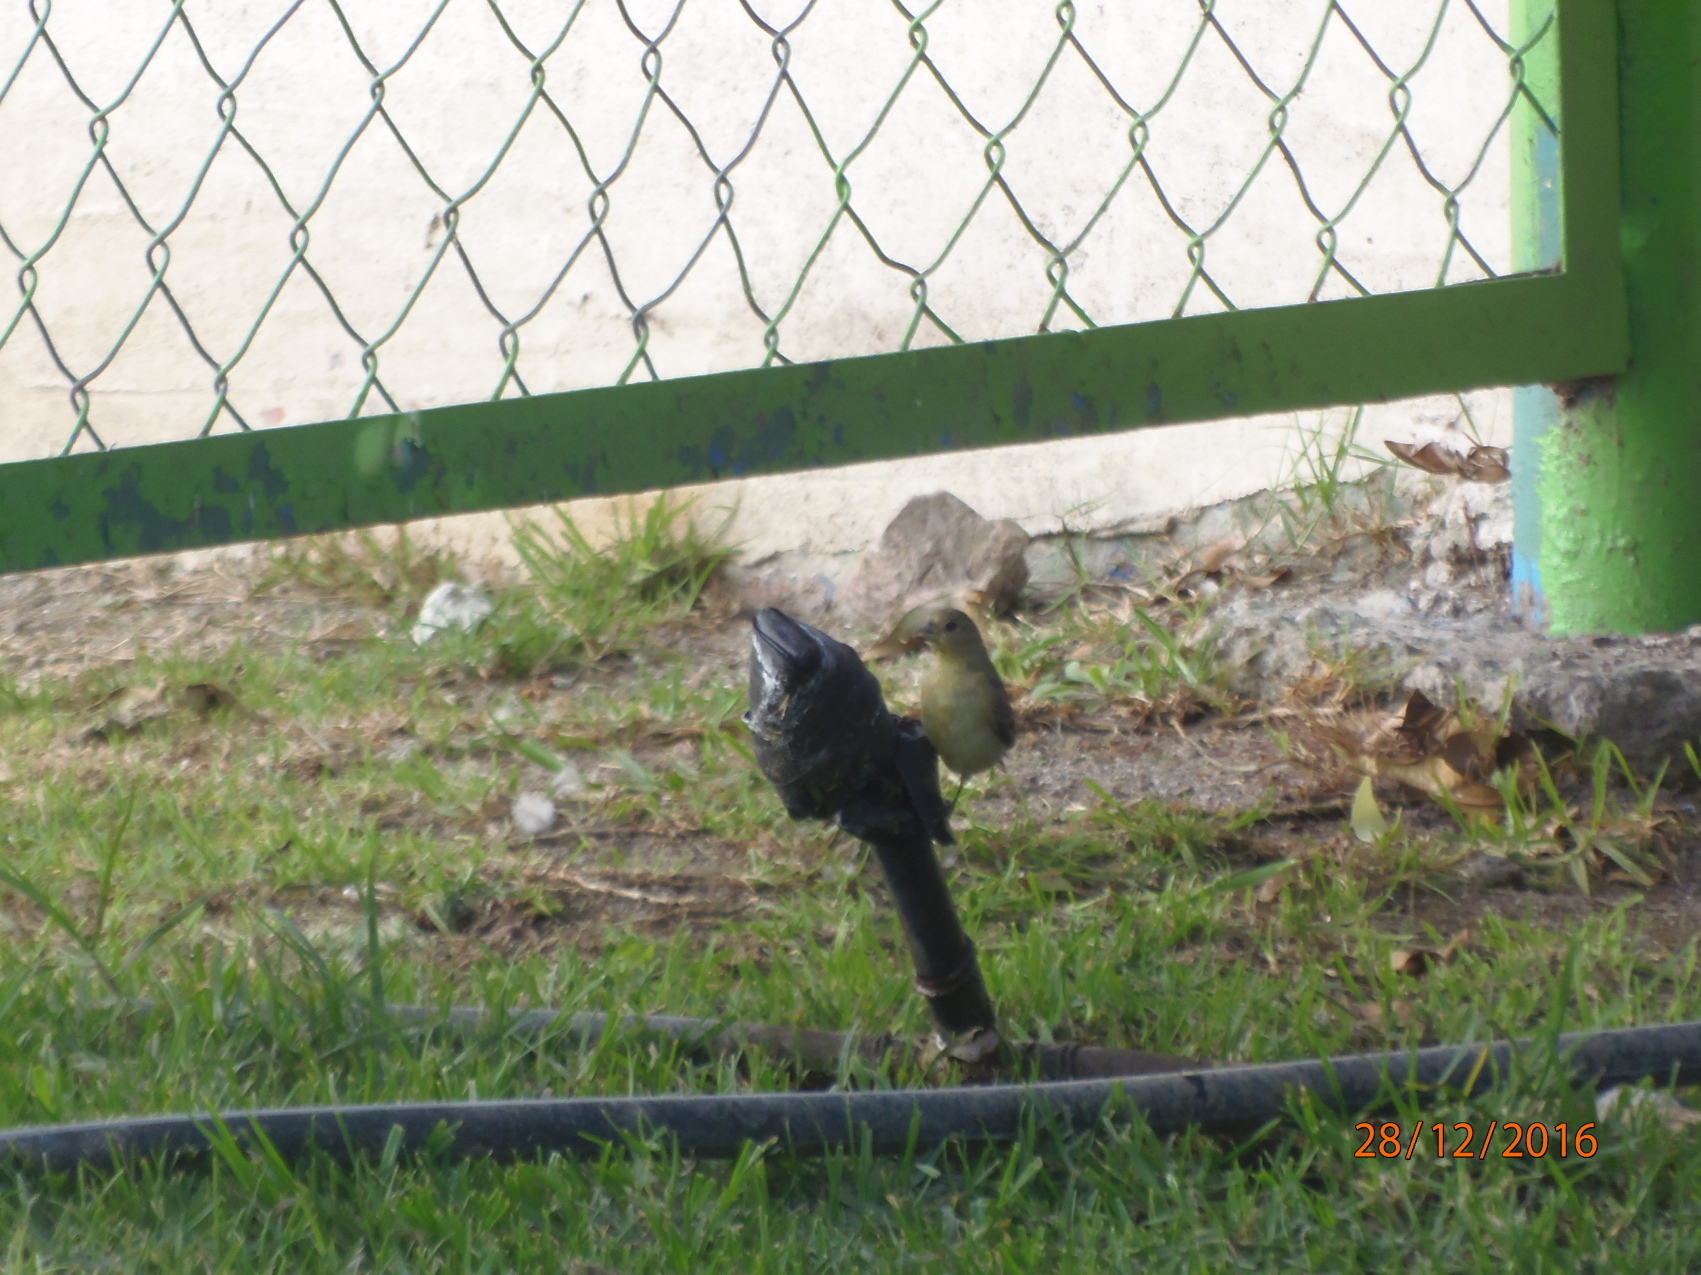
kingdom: Animalia
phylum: Chordata
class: Aves
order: Passeriformes
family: Fringillidae
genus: Spinus
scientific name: Spinus psaltria
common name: Lesser goldfinch
